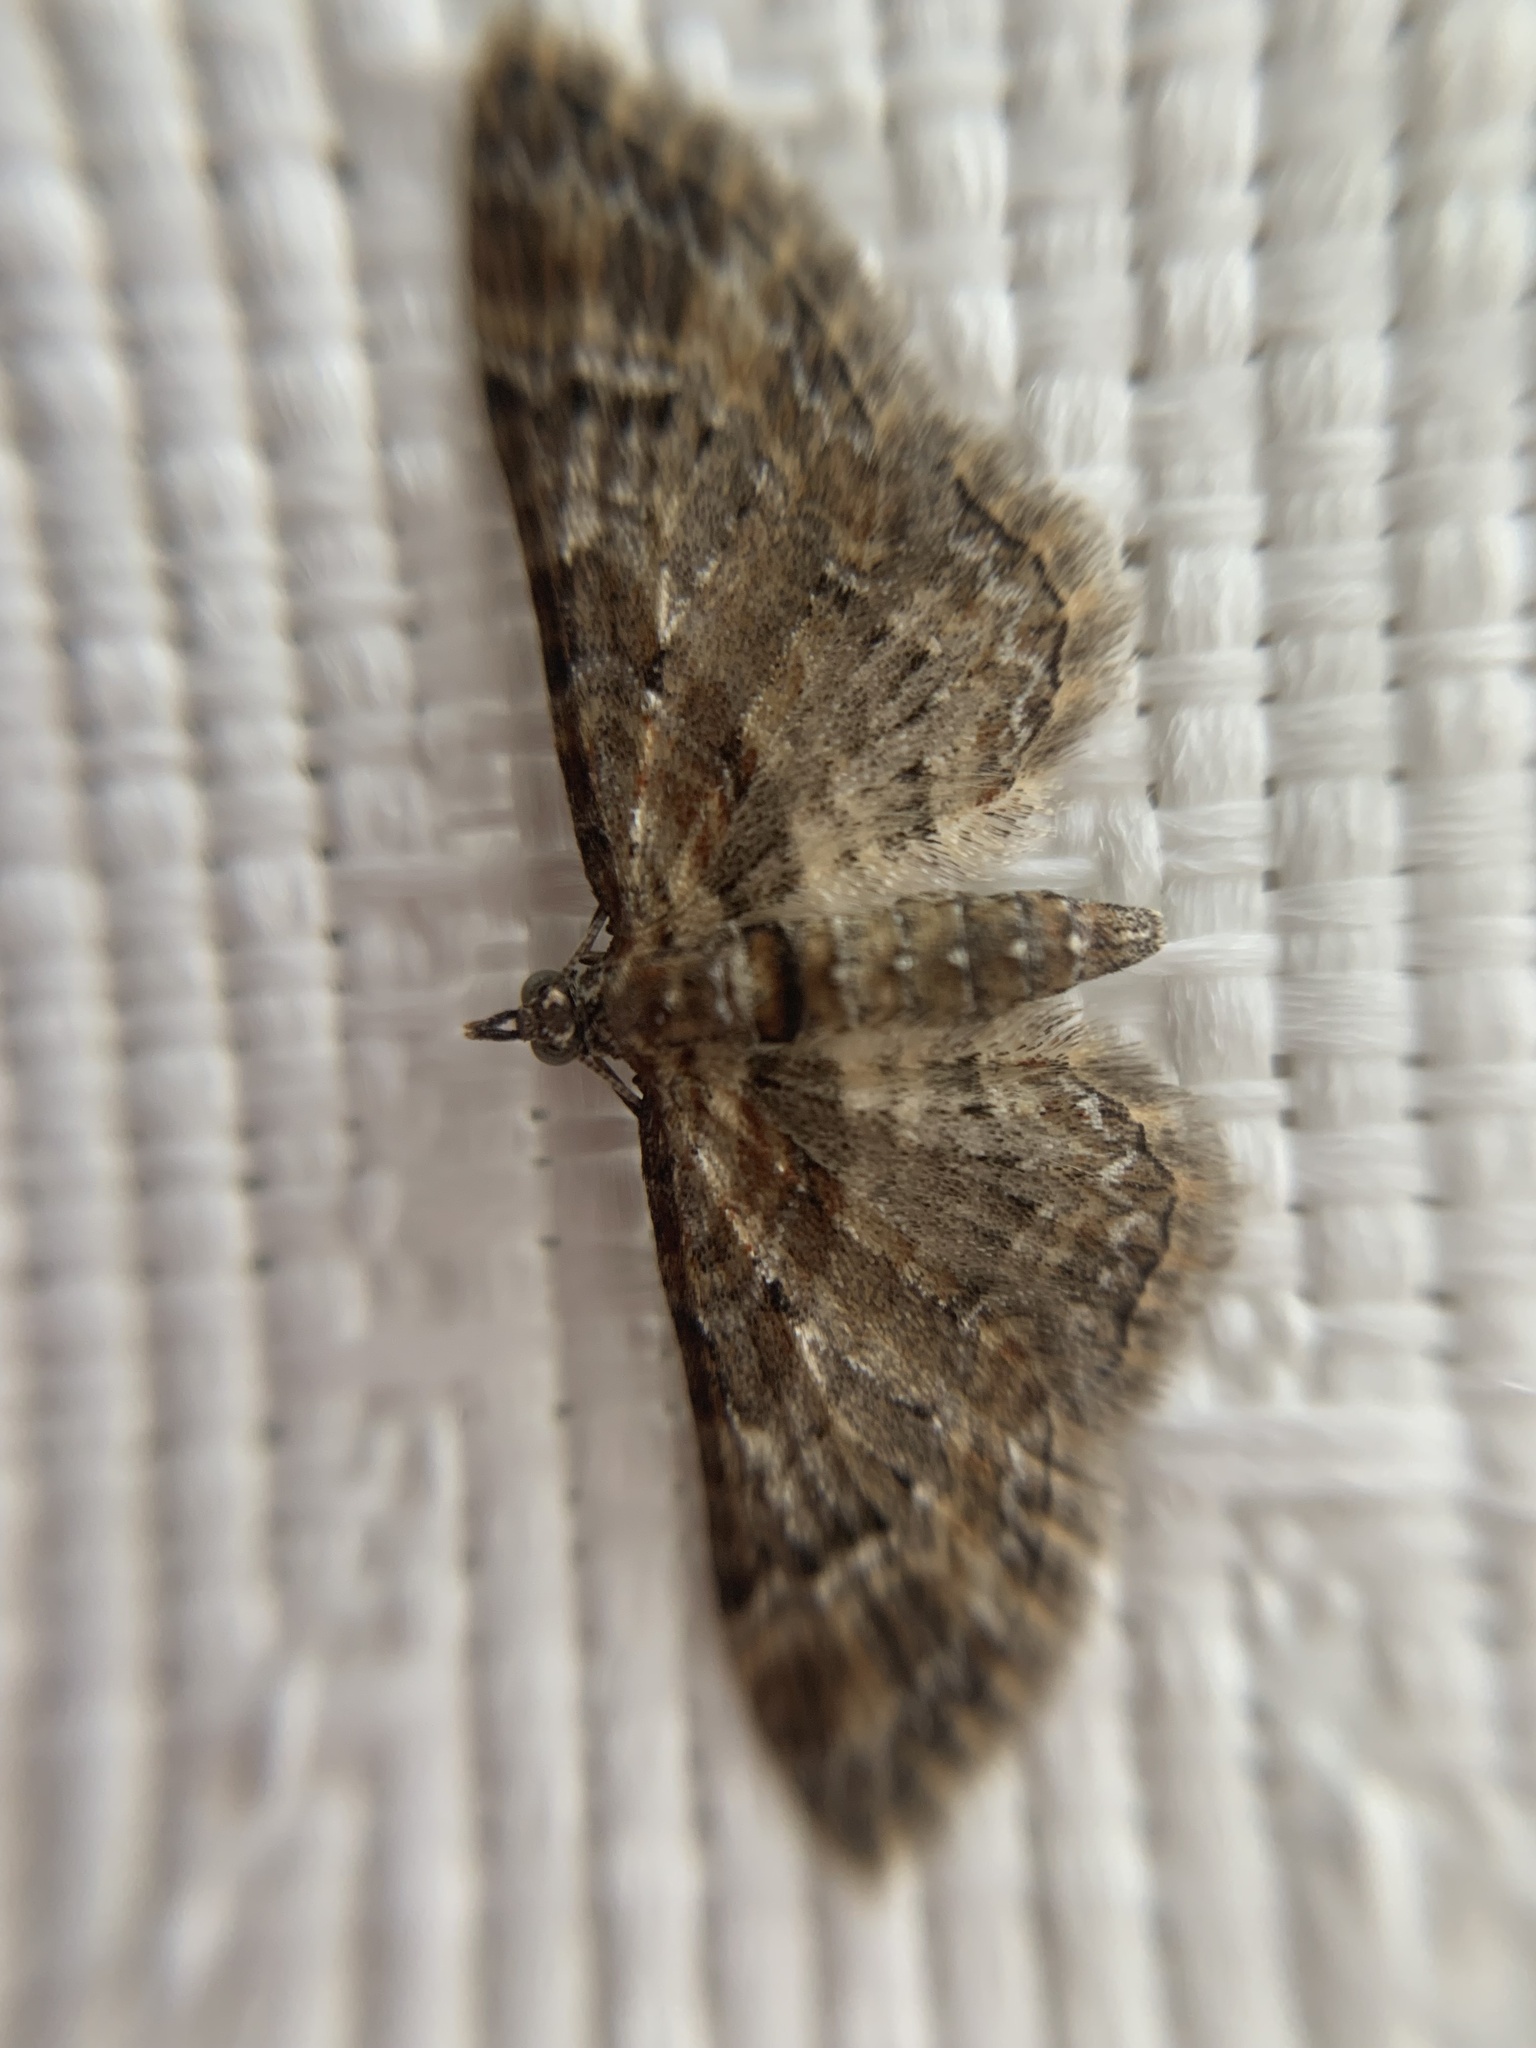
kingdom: Animalia
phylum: Arthropoda
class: Insecta
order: Lepidoptera
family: Geometridae
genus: Gymnoscelis
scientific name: Gymnoscelis rufifasciata
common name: Double-striped pug
